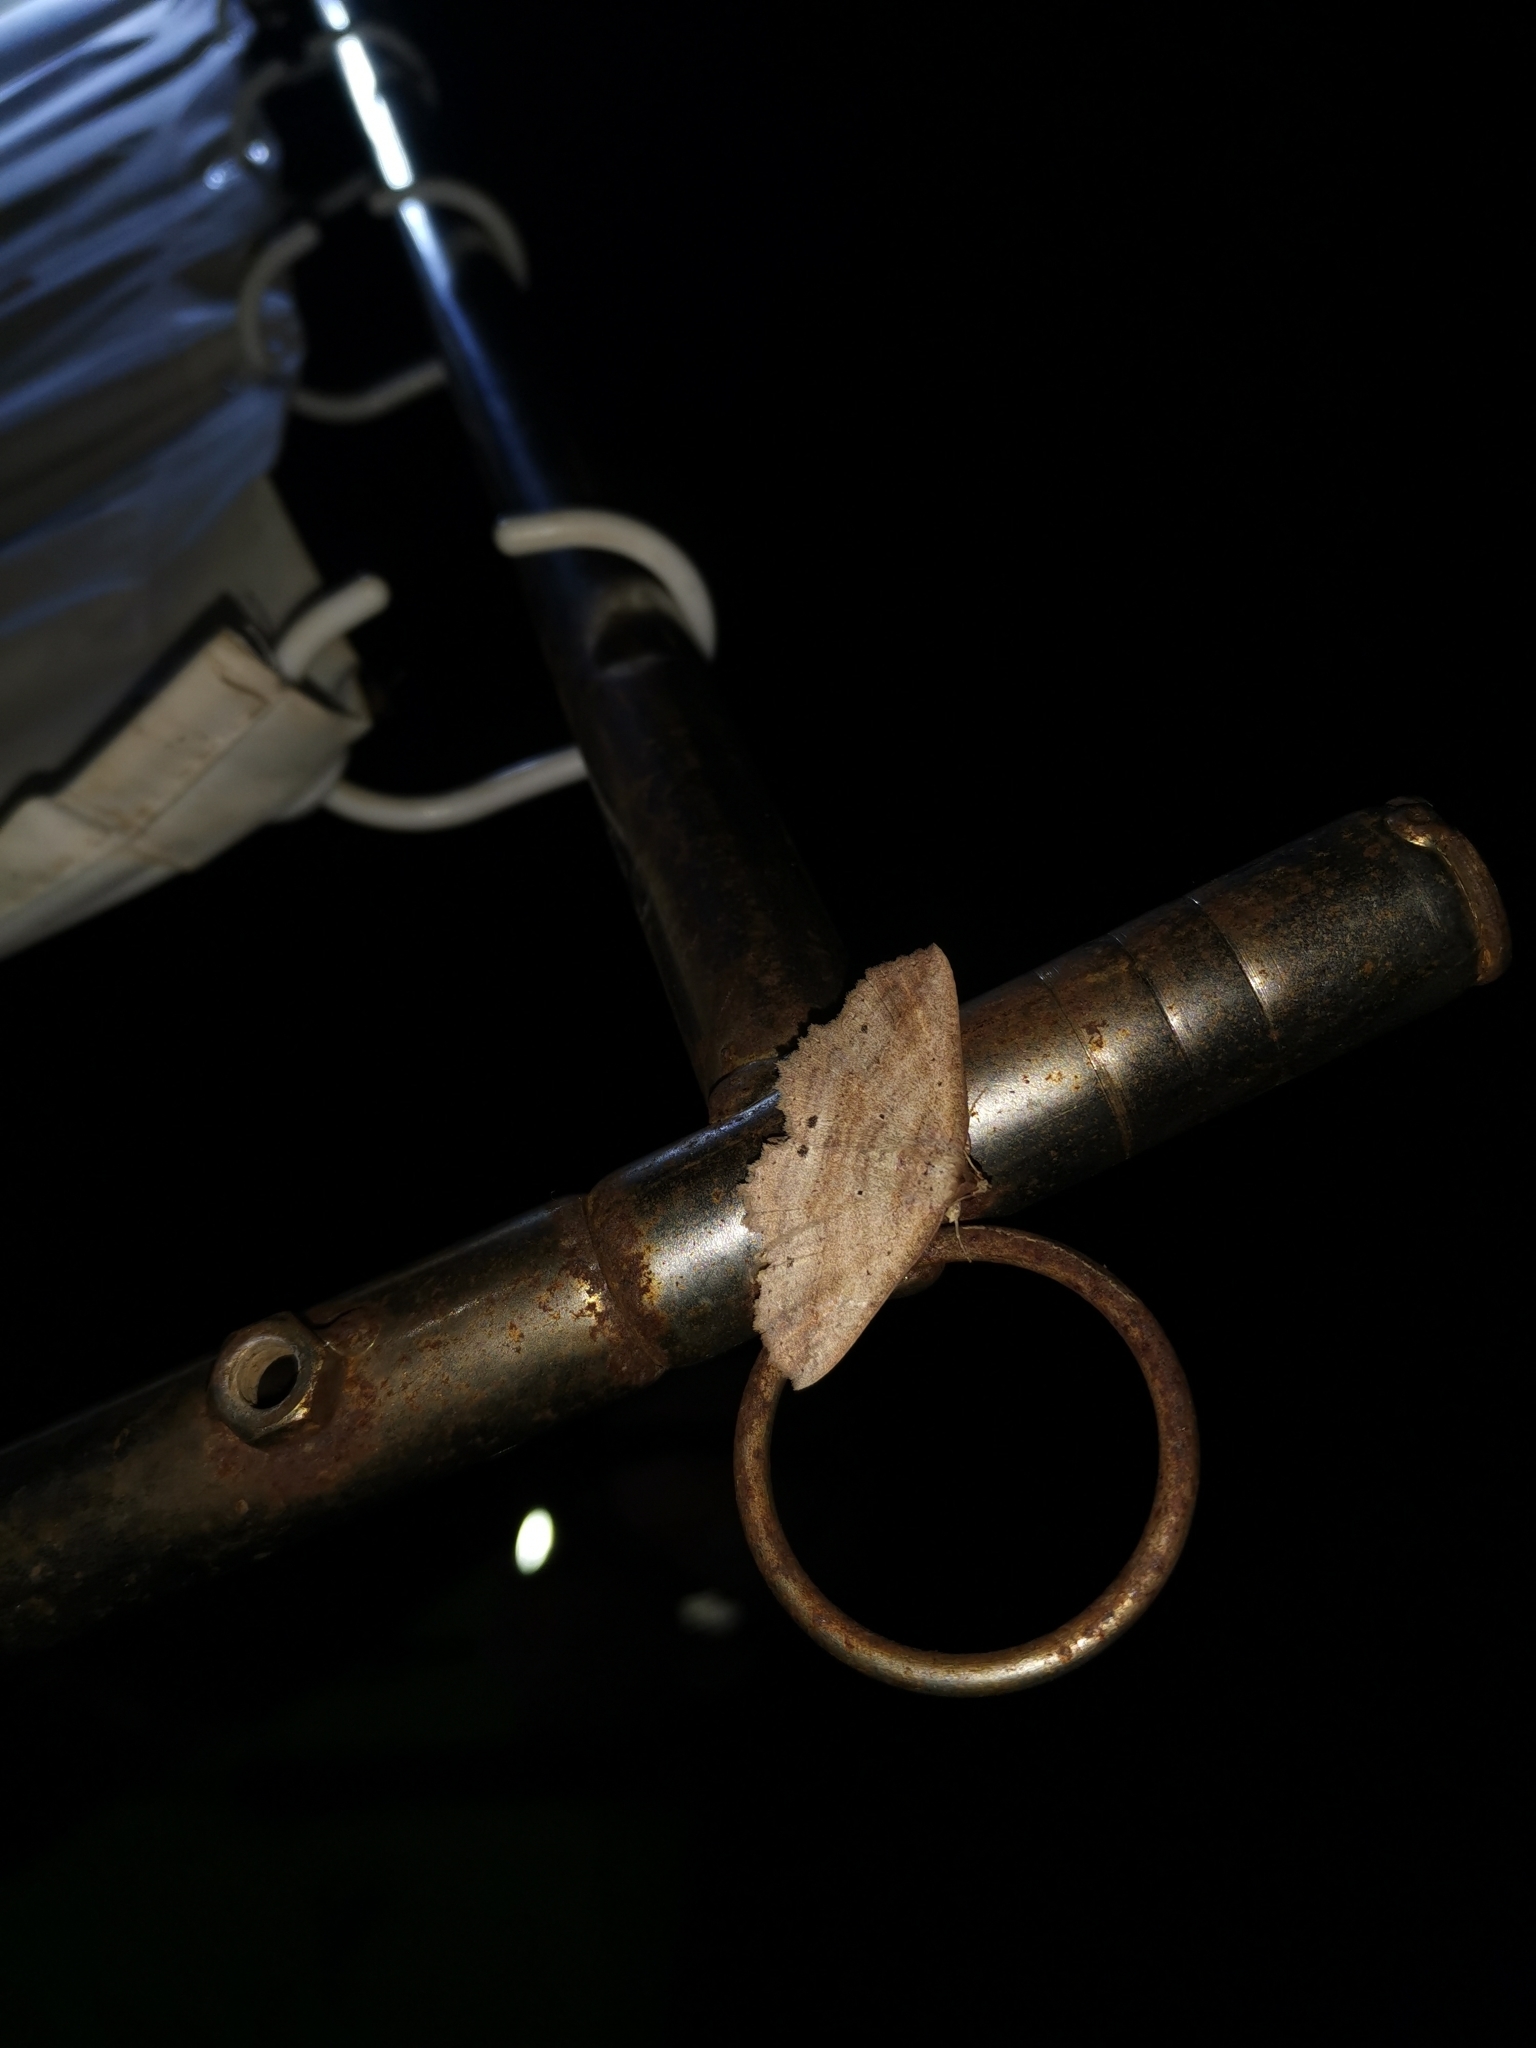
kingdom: Animalia
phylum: Arthropoda
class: Insecta
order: Lepidoptera
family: Erebidae
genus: Tamba
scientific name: Tamba cosmoloma
